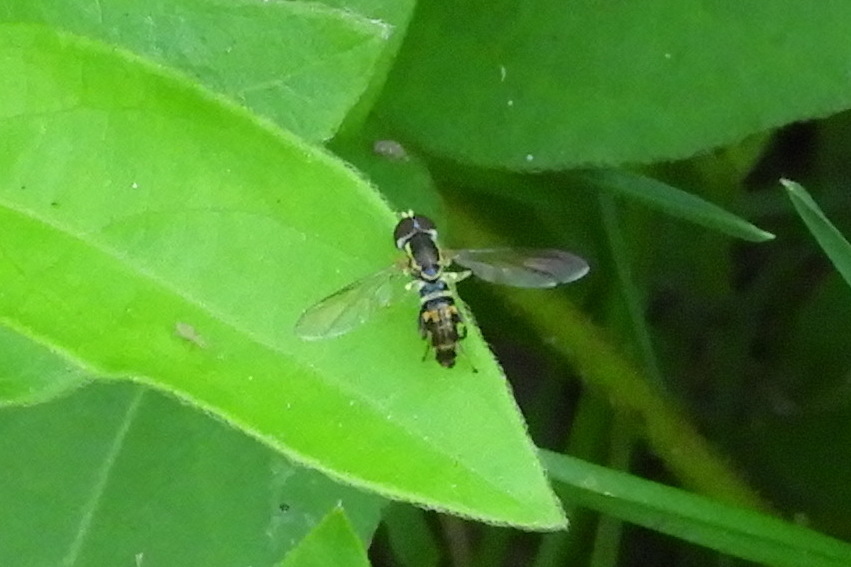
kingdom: Animalia
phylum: Arthropoda
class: Insecta
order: Diptera
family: Syrphidae
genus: Toxomerus
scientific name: Toxomerus geminatus
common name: Eastern calligrapher
